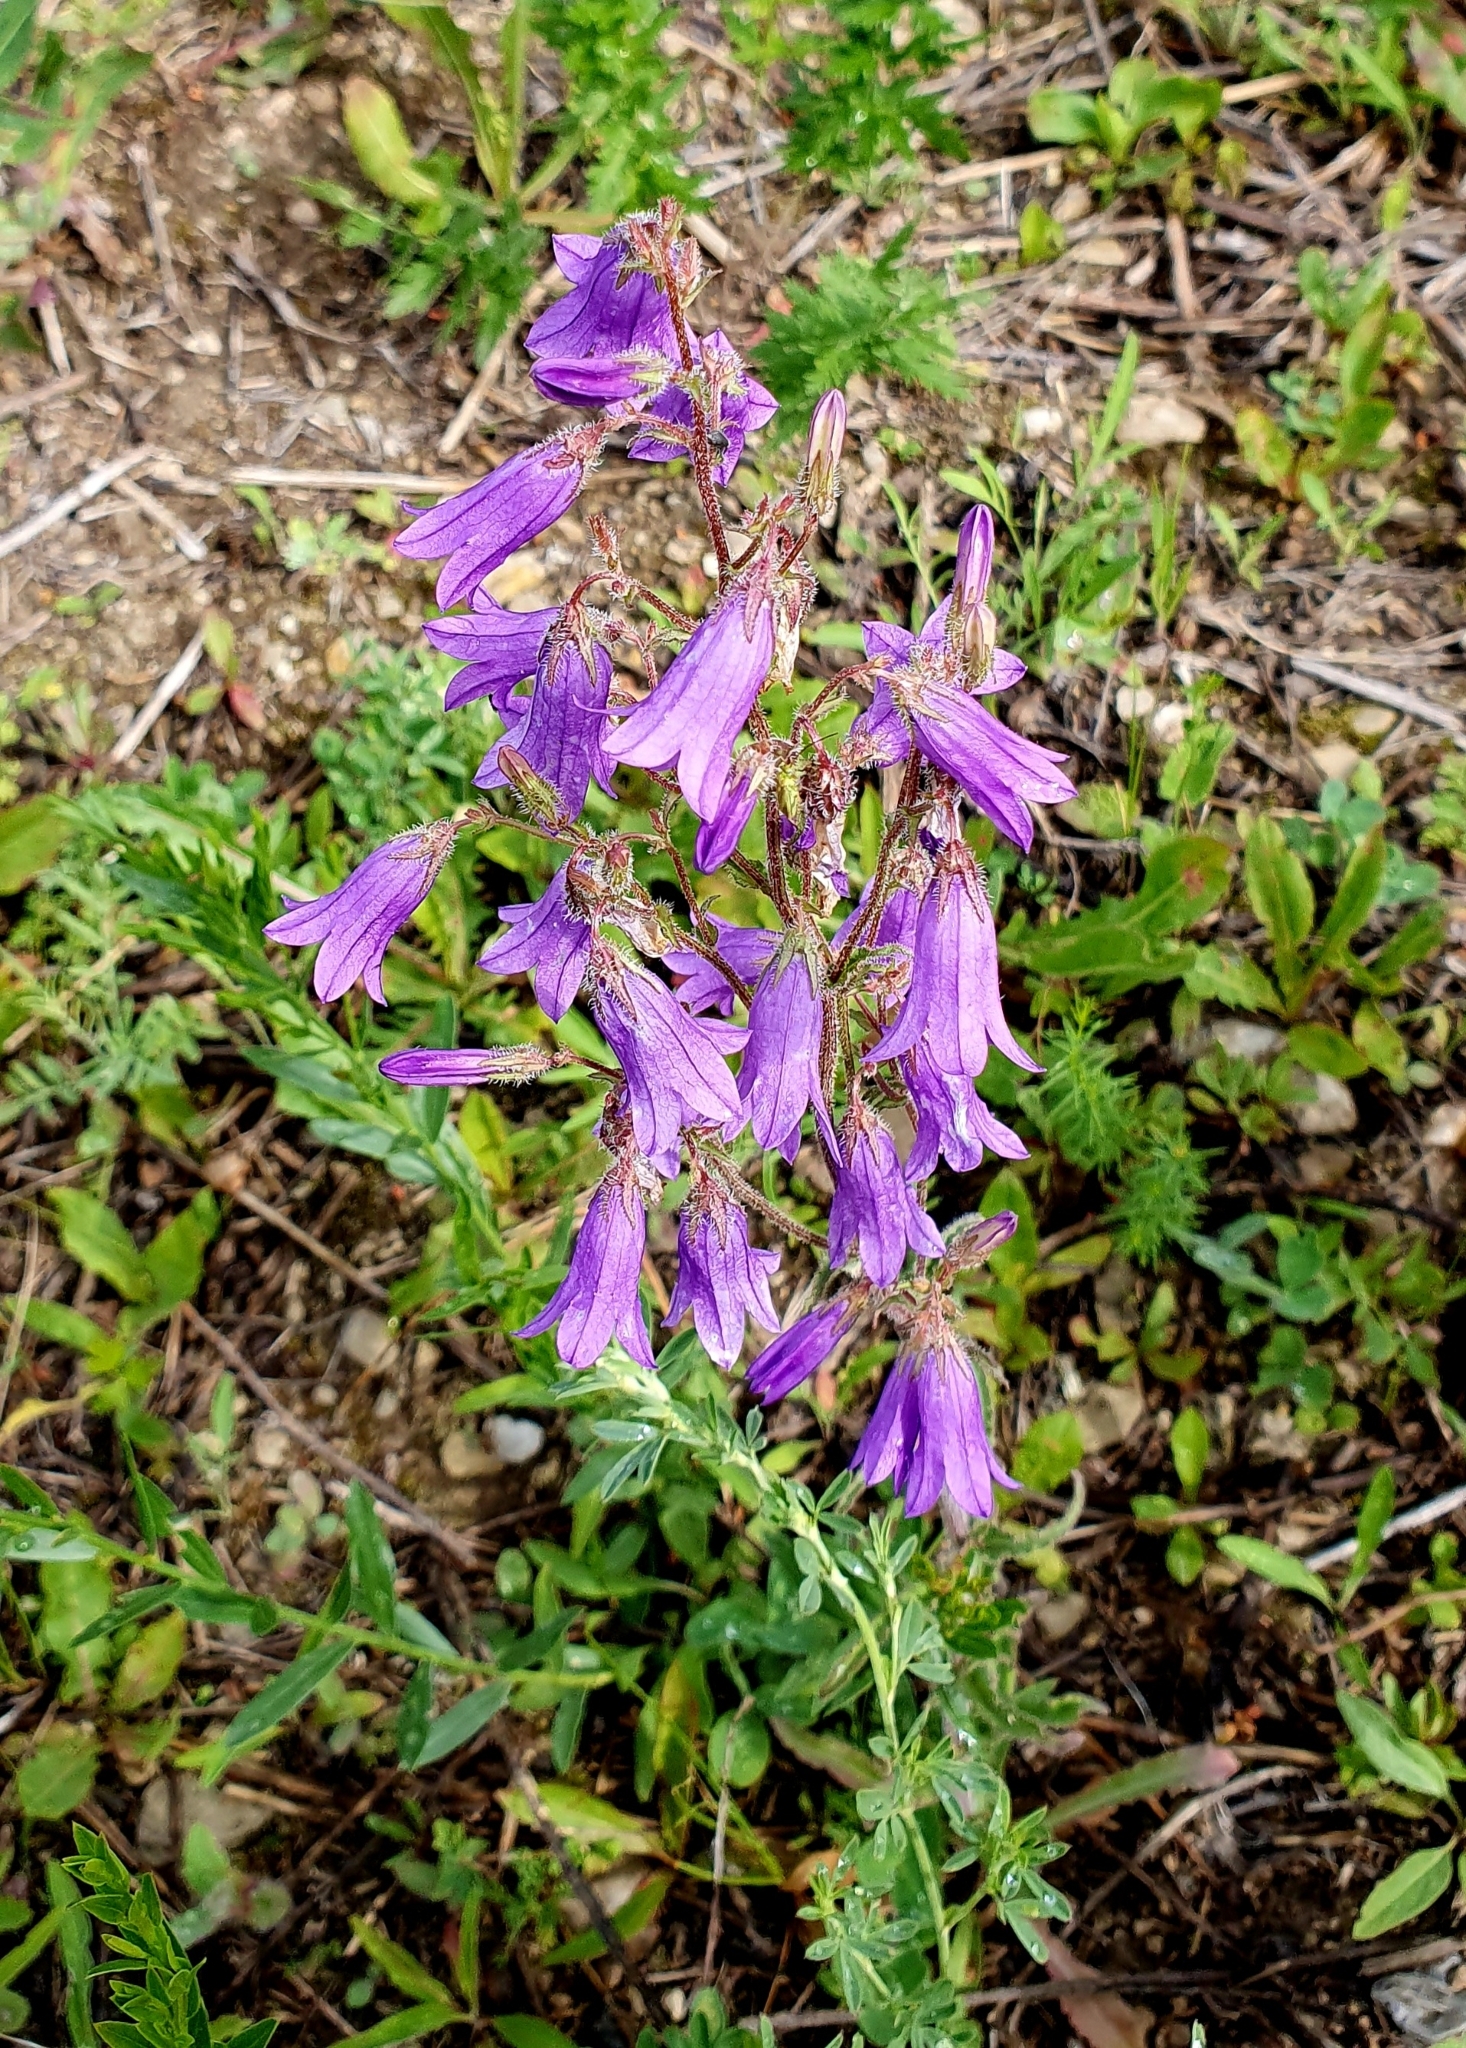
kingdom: Plantae
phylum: Tracheophyta
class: Magnoliopsida
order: Asterales
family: Campanulaceae
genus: Campanula
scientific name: Campanula sibirica
